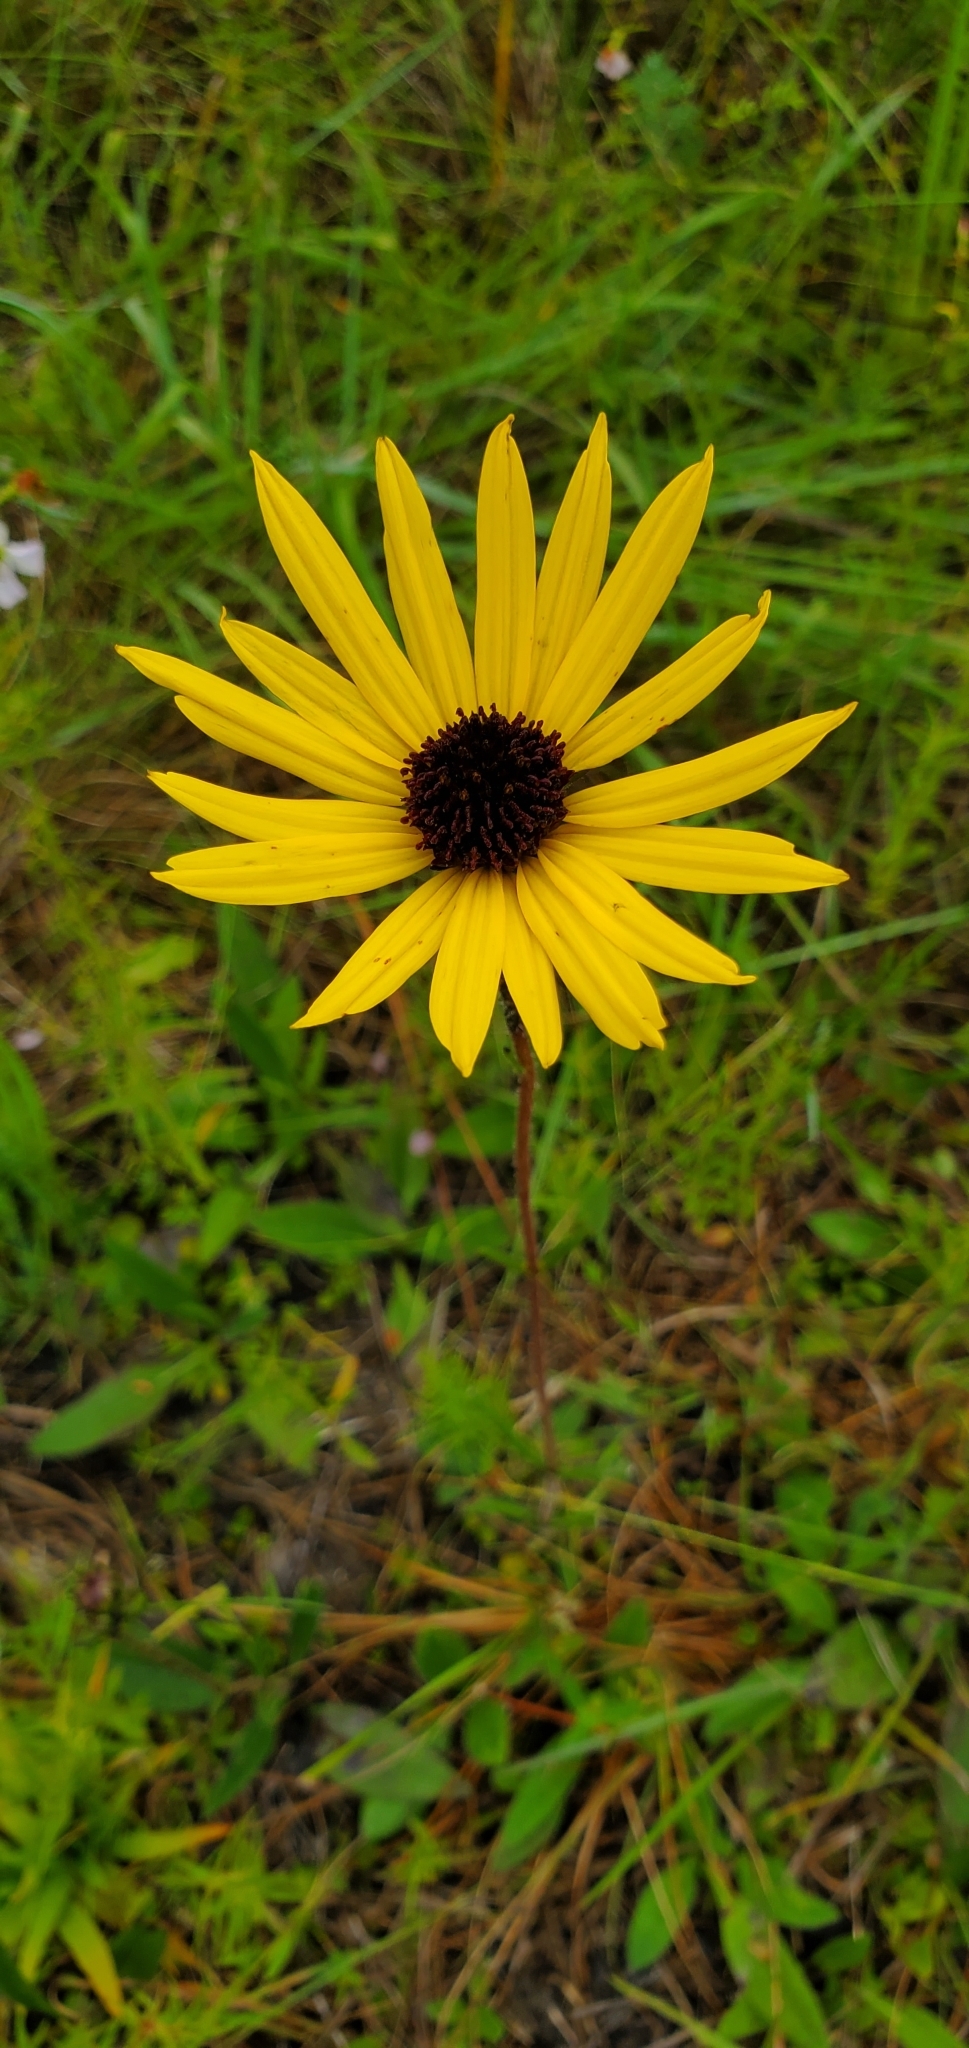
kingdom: Plantae
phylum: Tracheophyta
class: Magnoliopsida
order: Asterales
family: Asteraceae
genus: Helianthus
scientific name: Helianthus heterophyllus
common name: Wetland sunflower
